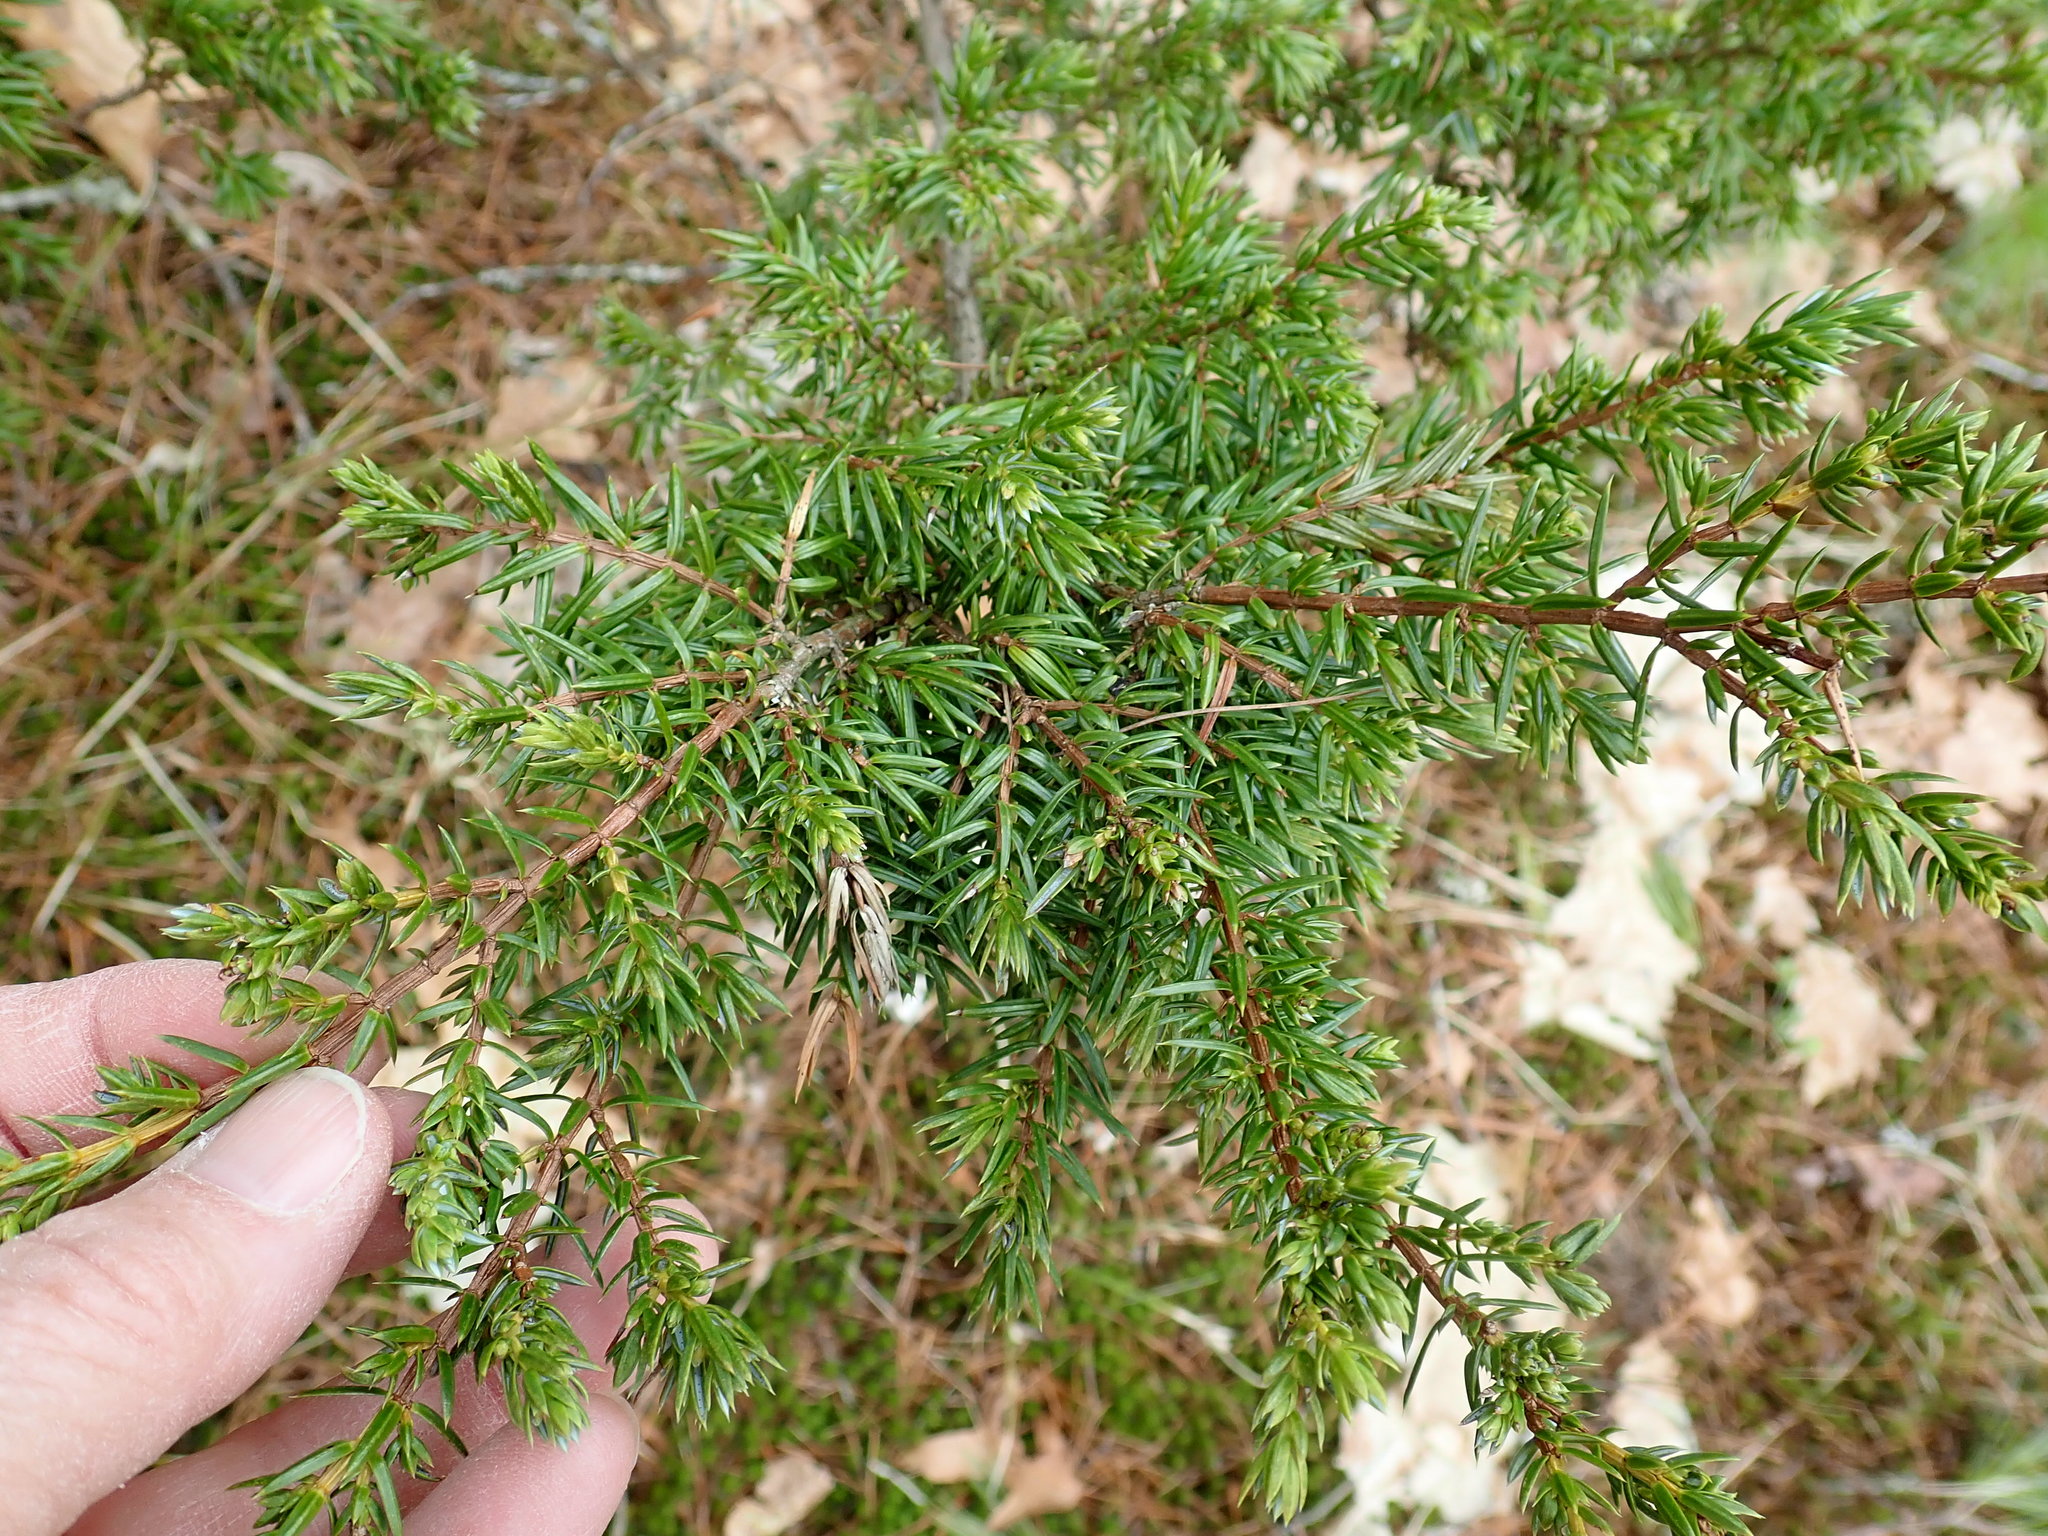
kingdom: Plantae
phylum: Tracheophyta
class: Pinopsida
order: Pinales
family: Cupressaceae
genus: Juniperus
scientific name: Juniperus communis
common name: Common juniper
